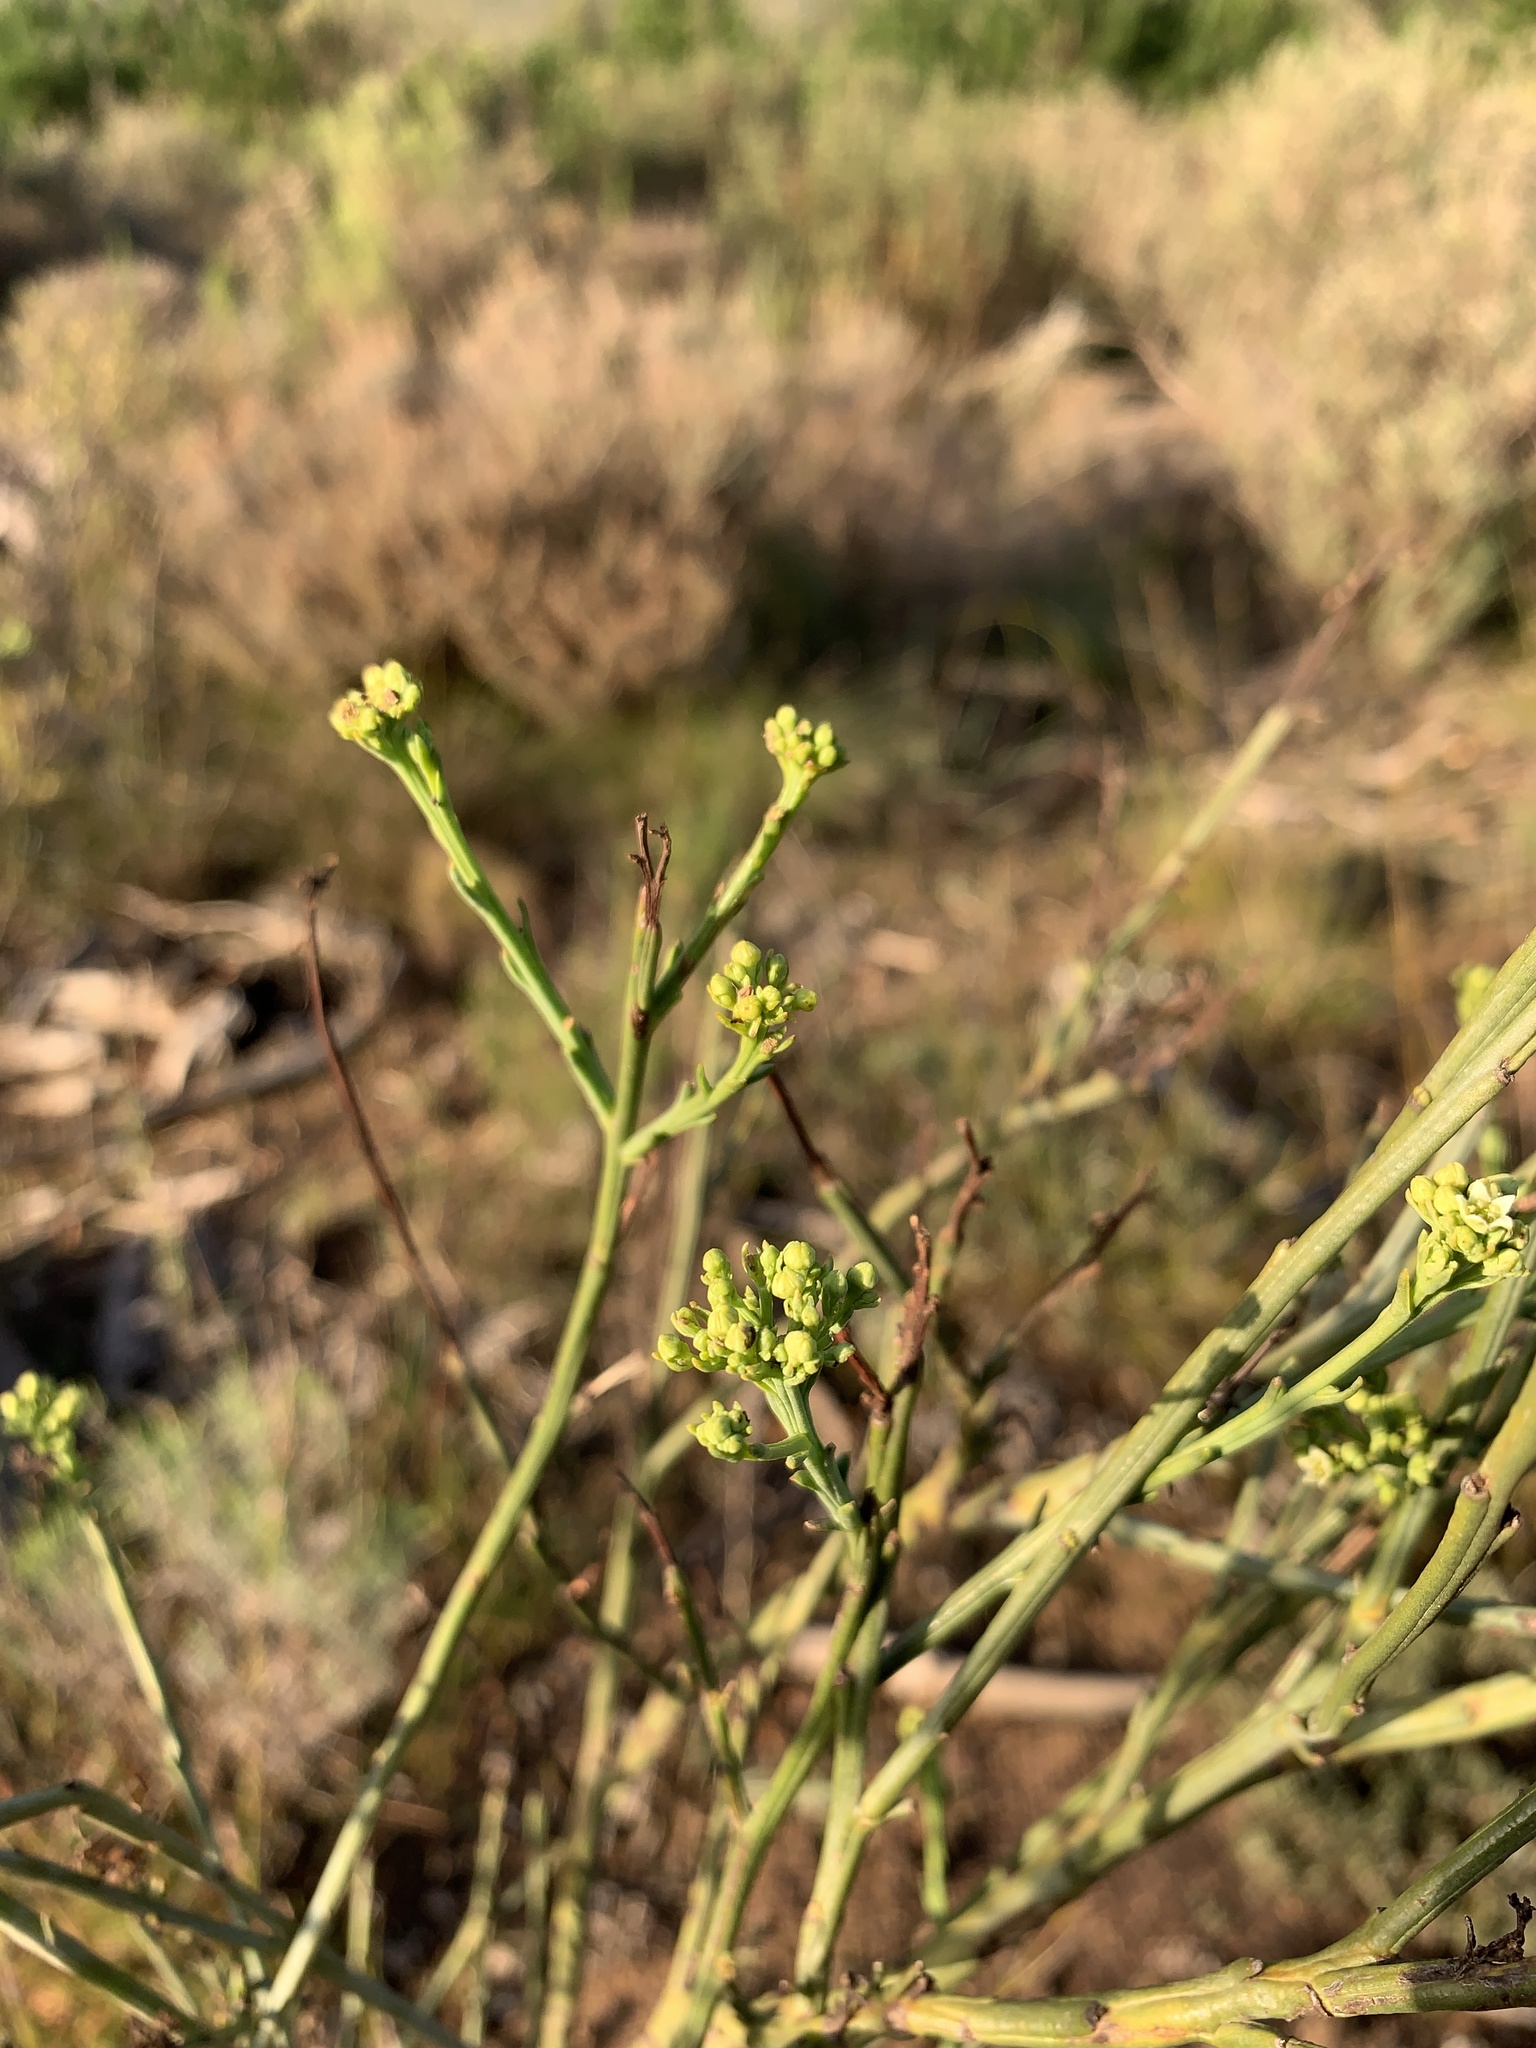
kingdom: Plantae
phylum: Tracheophyta
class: Magnoliopsida
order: Santalales
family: Thesiaceae
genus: Thesium
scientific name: Thesium strictum
